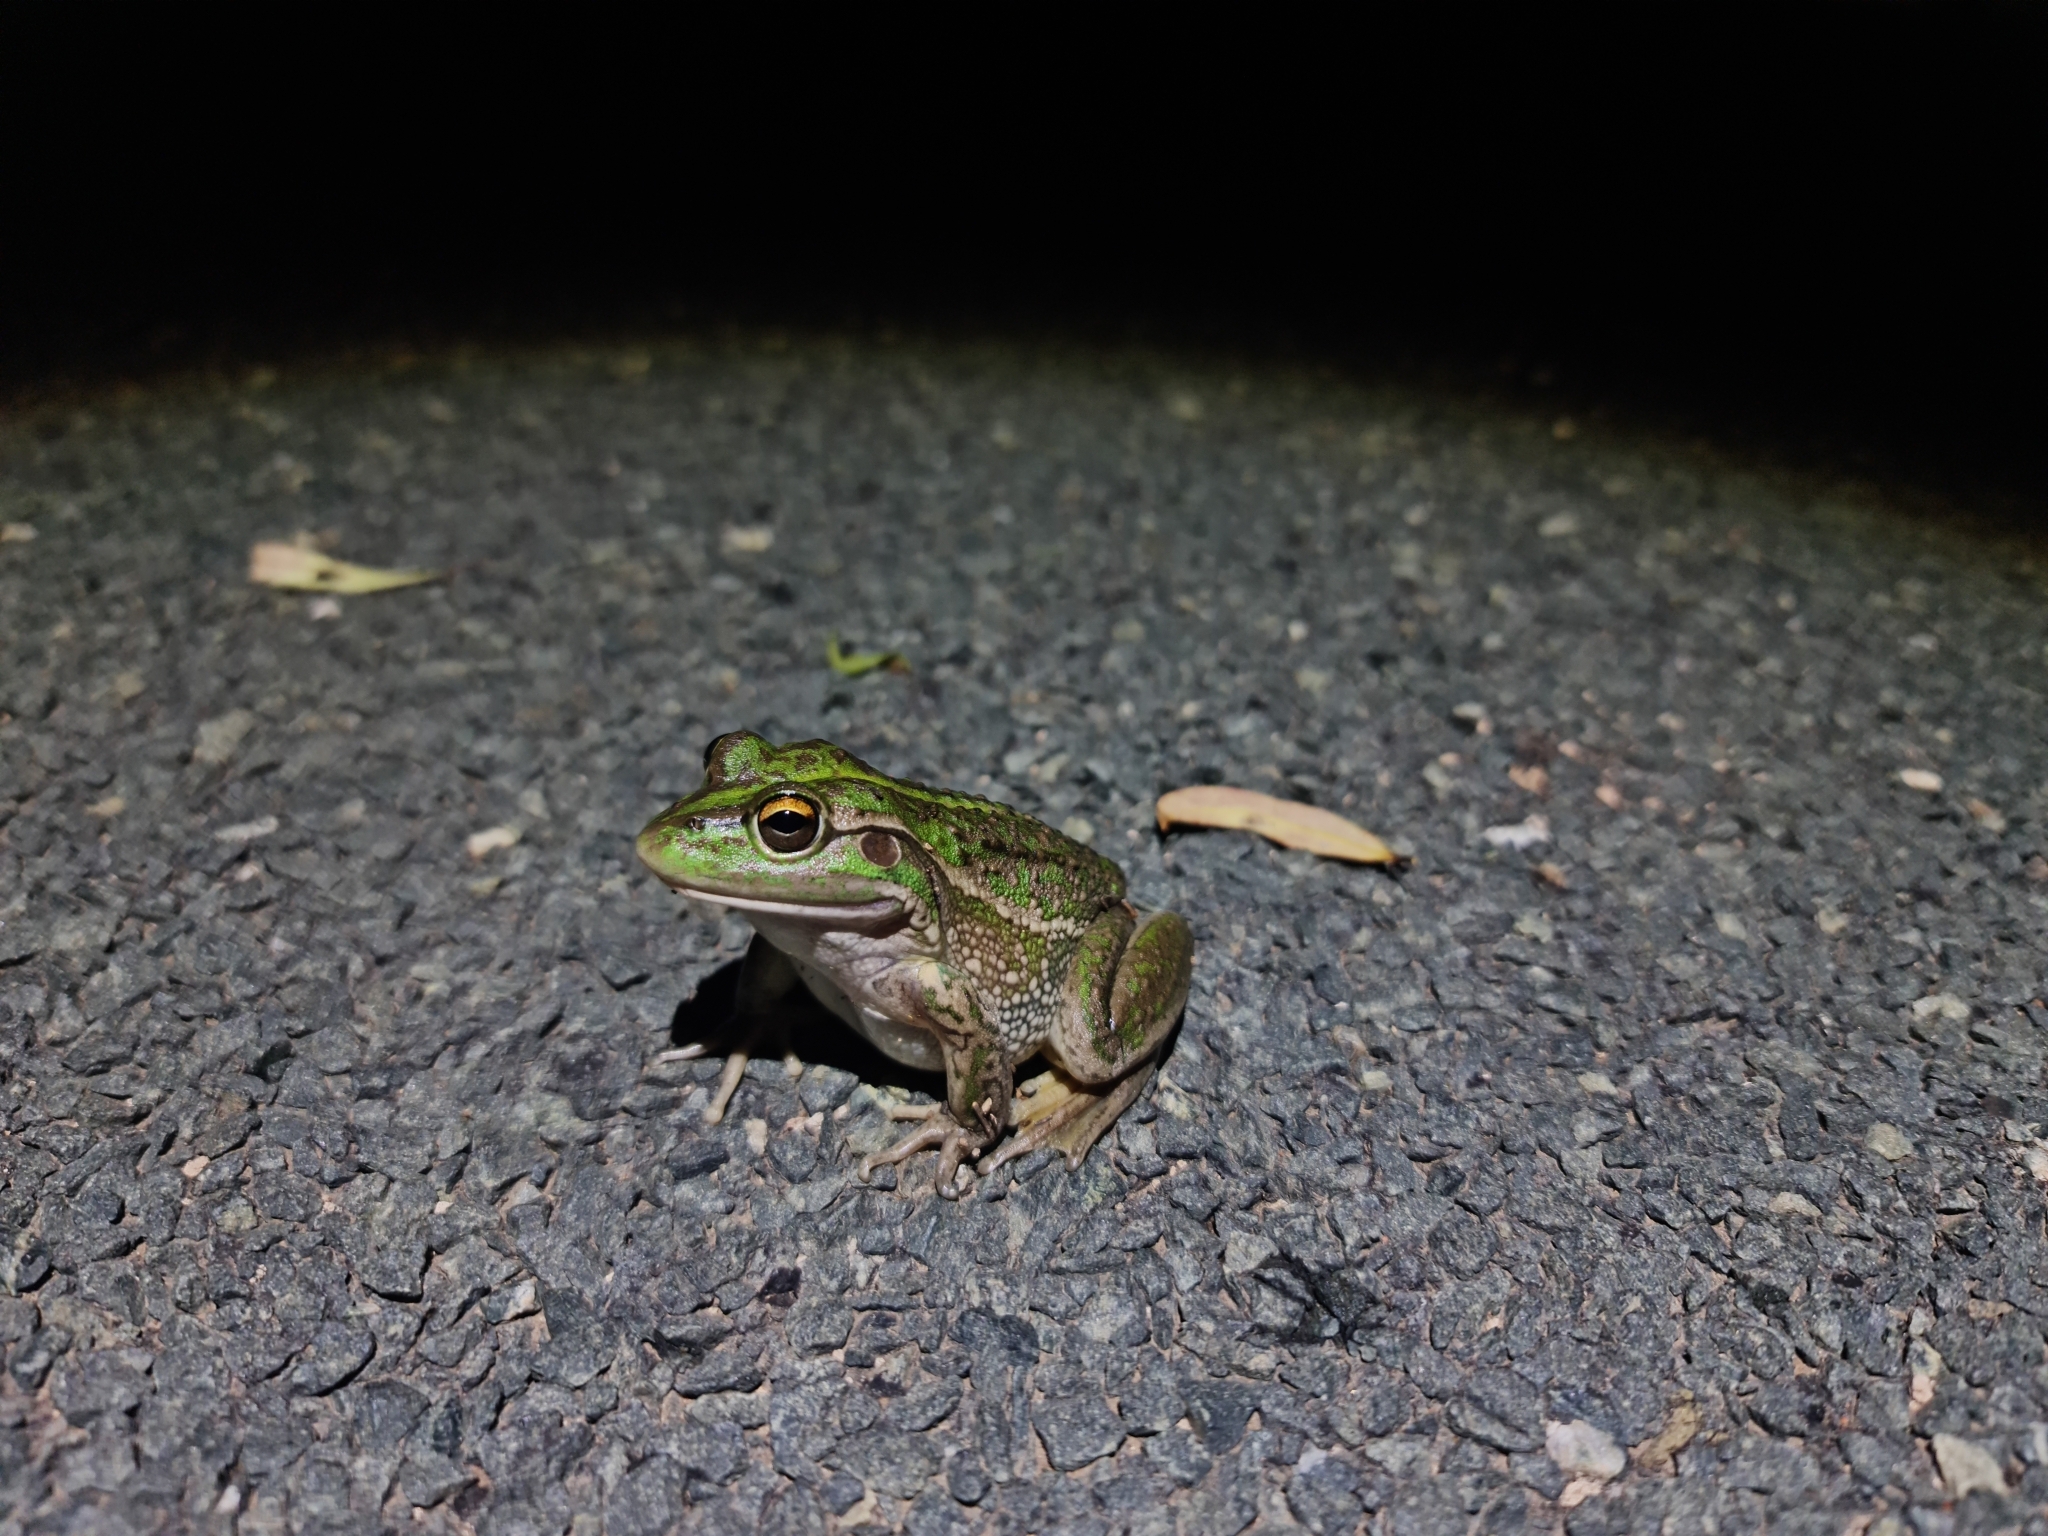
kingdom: Animalia
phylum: Chordata
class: Amphibia
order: Anura
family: Pelodryadidae
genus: Ranoidea
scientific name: Ranoidea raniformis
